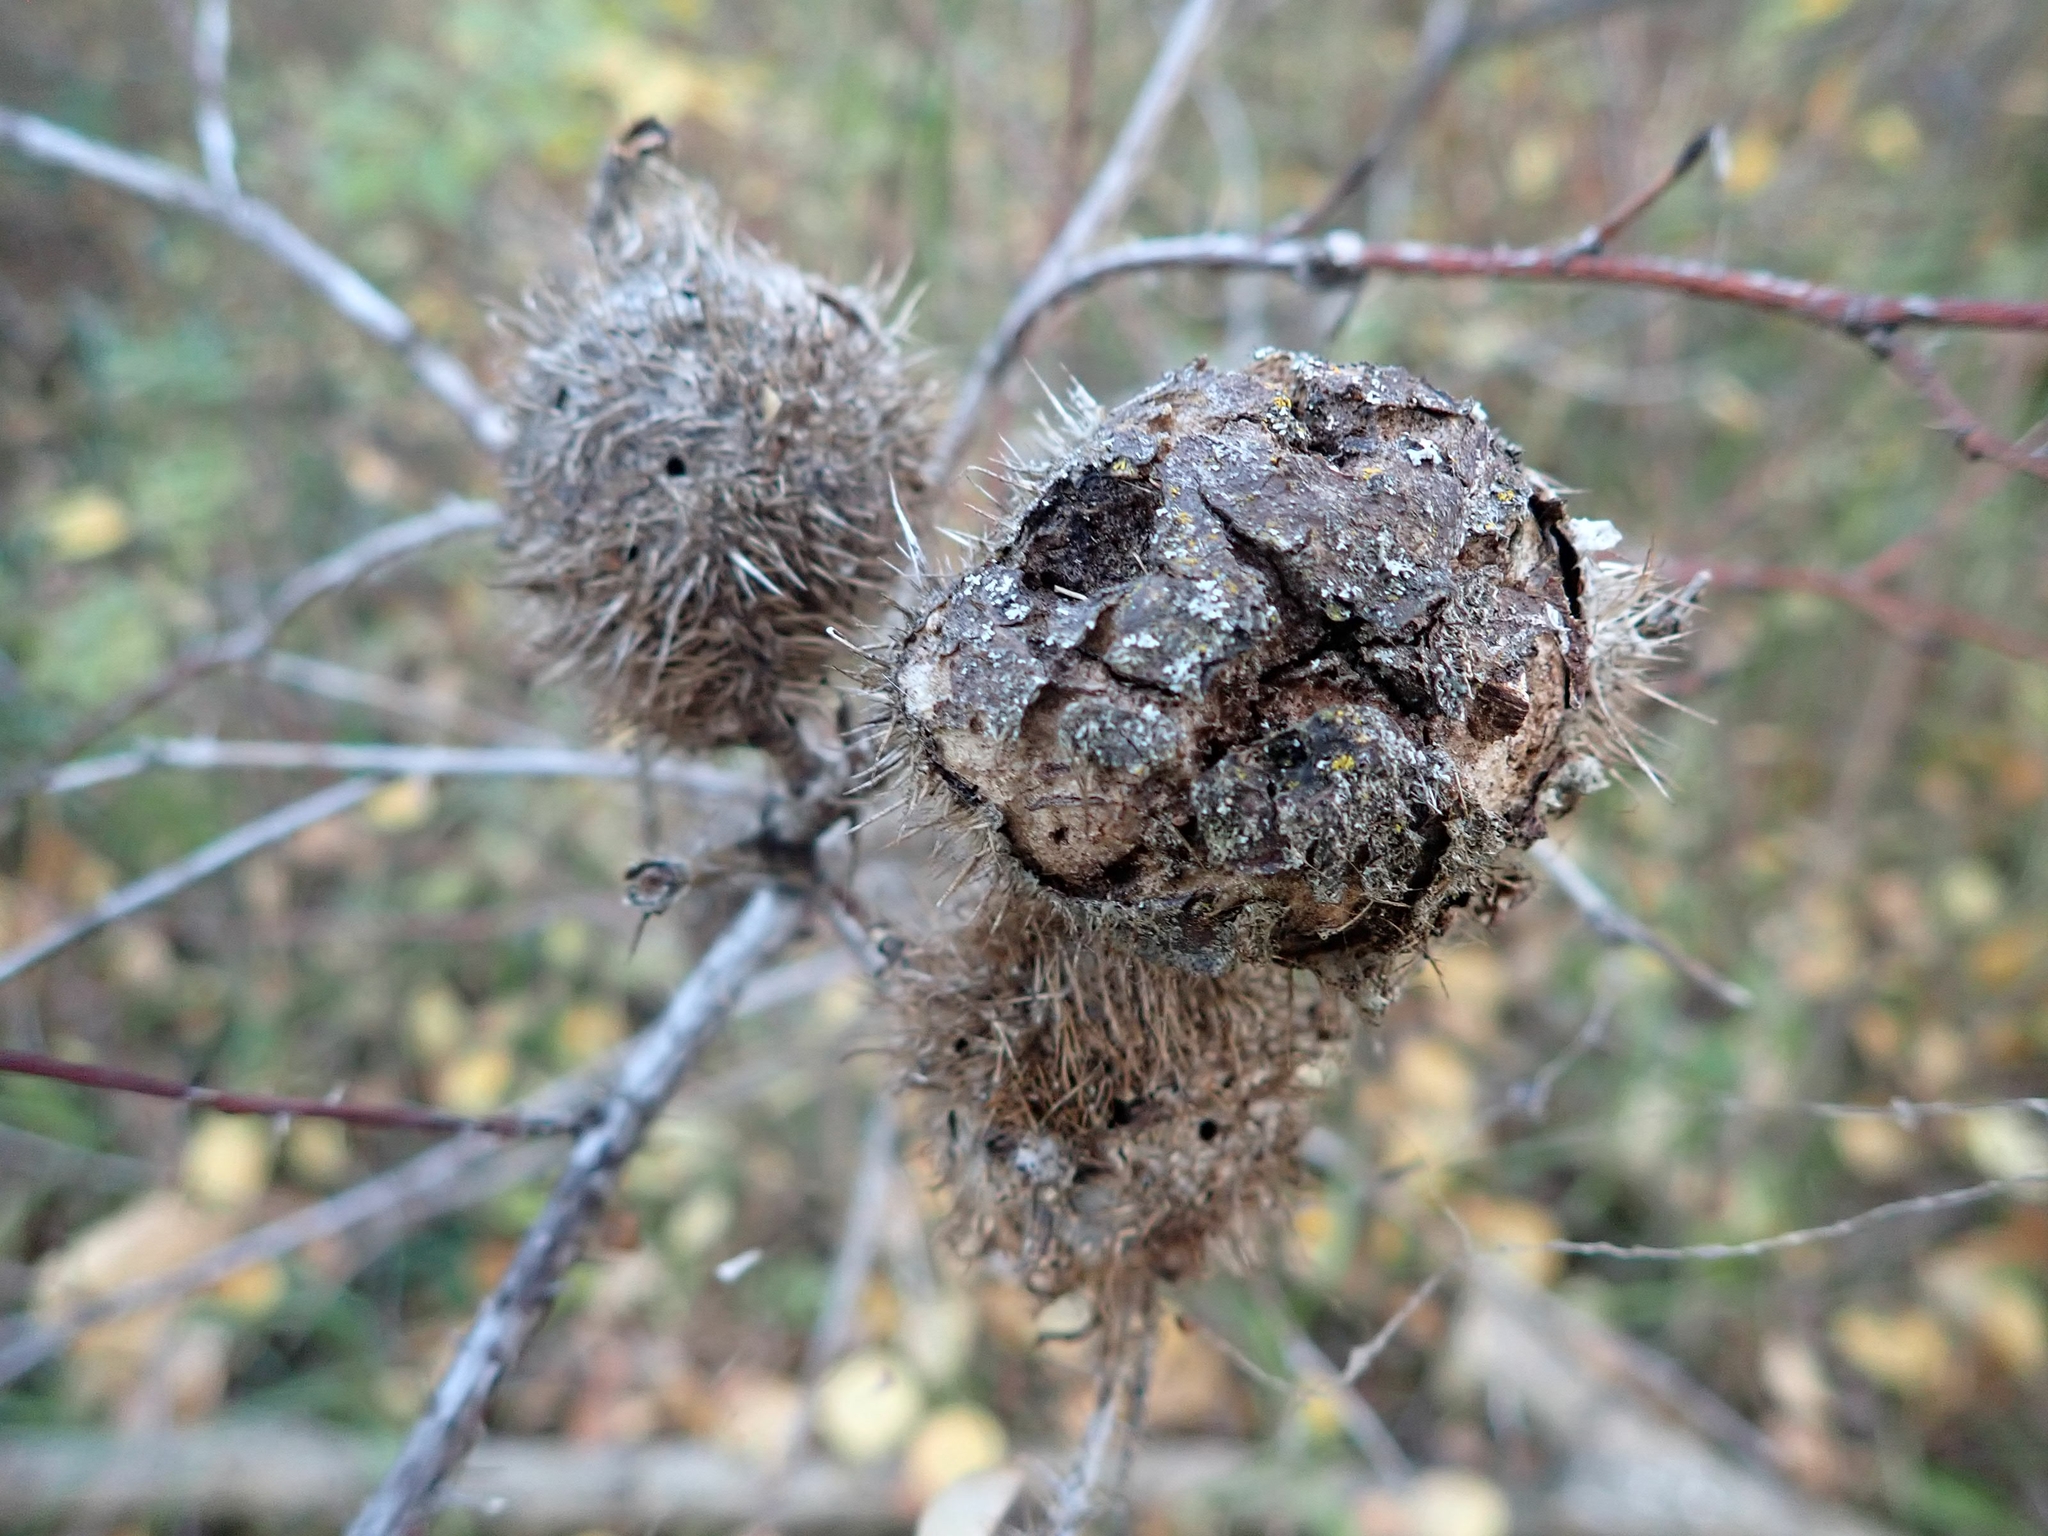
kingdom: Animalia
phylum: Arthropoda
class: Insecta
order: Hymenoptera
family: Cynipidae
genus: Diplolepis
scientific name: Diplolepis spinosa
